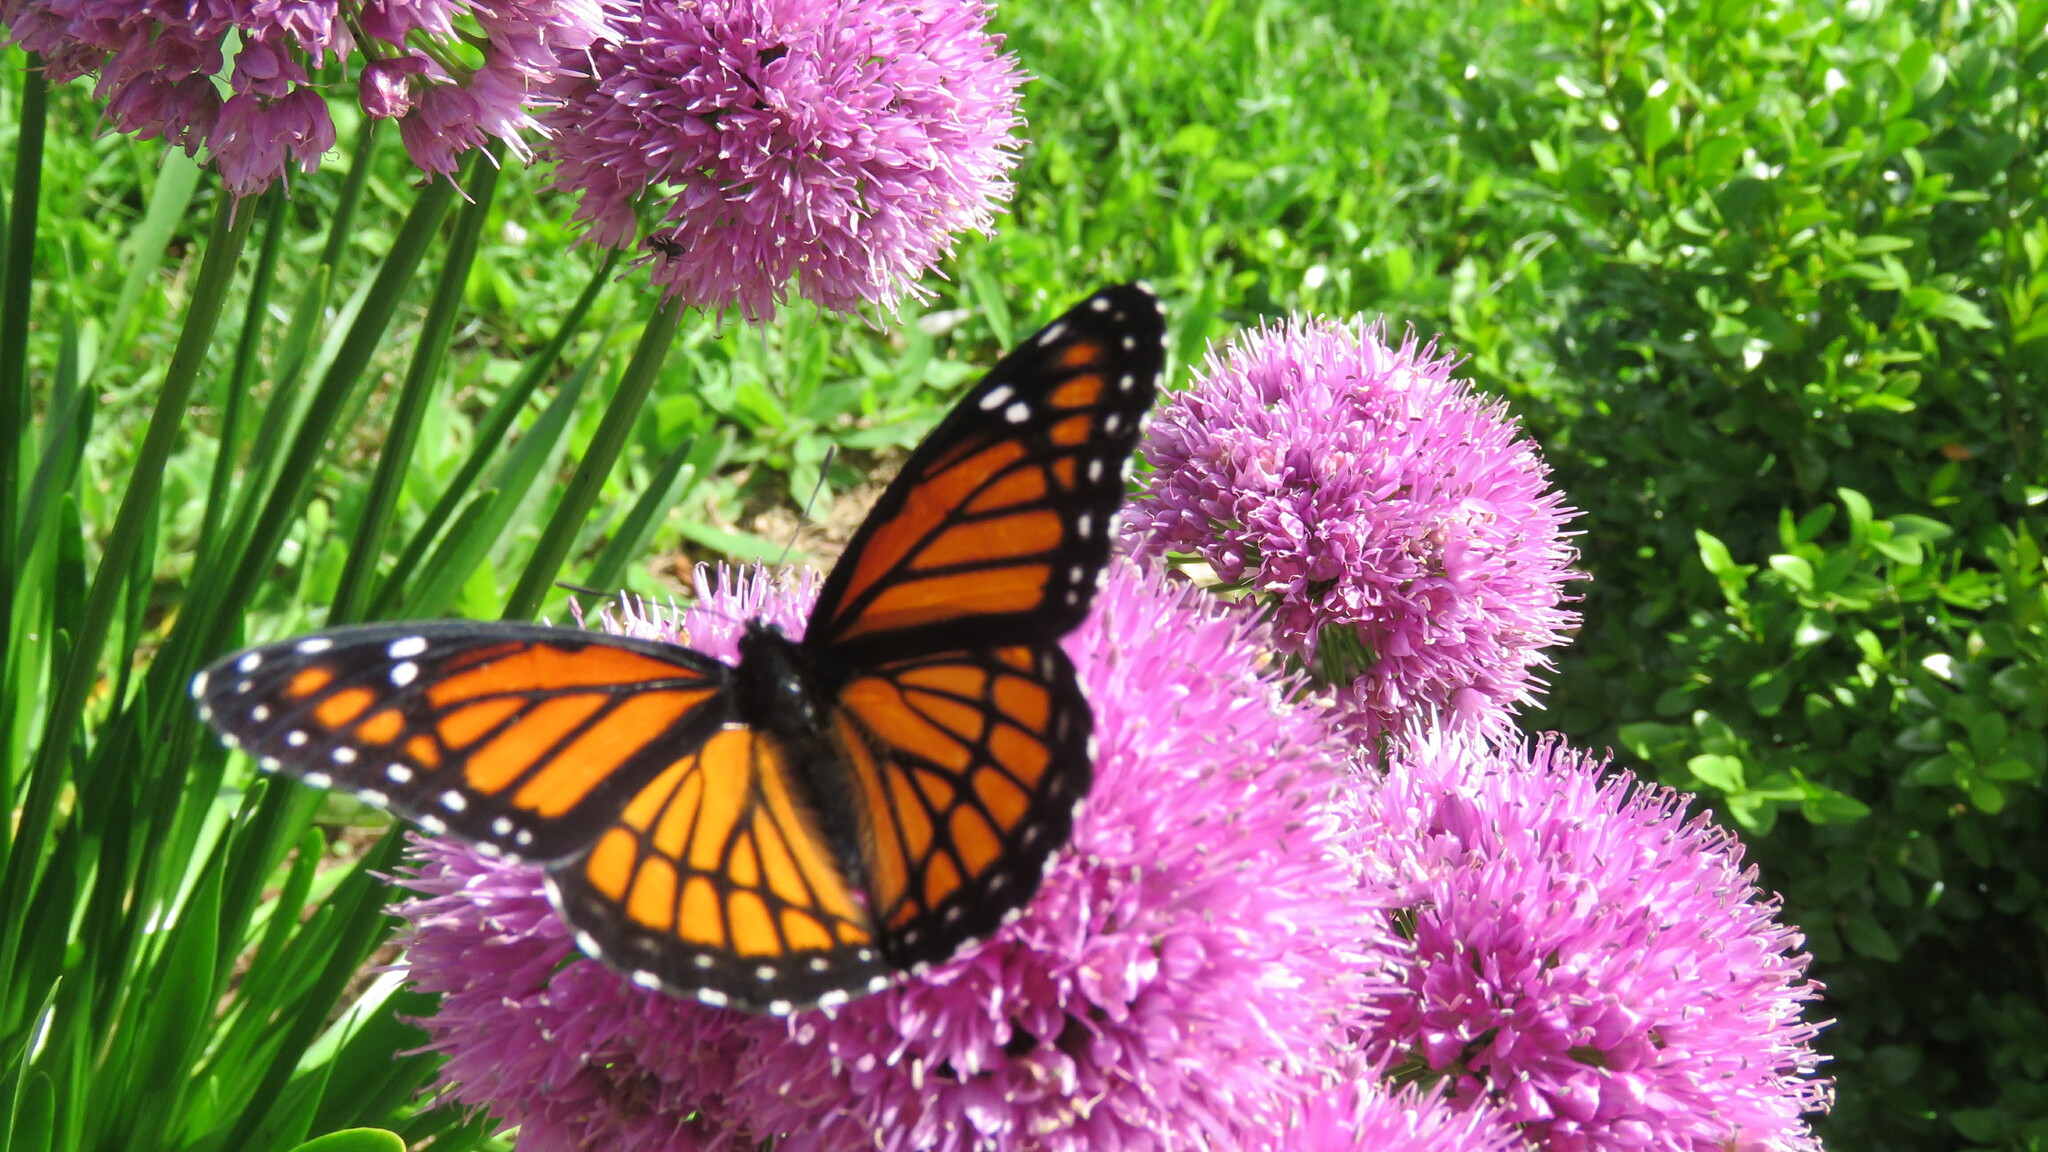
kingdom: Animalia
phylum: Arthropoda
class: Insecta
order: Lepidoptera
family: Nymphalidae
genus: Limenitis
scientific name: Limenitis archippus
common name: Viceroy
